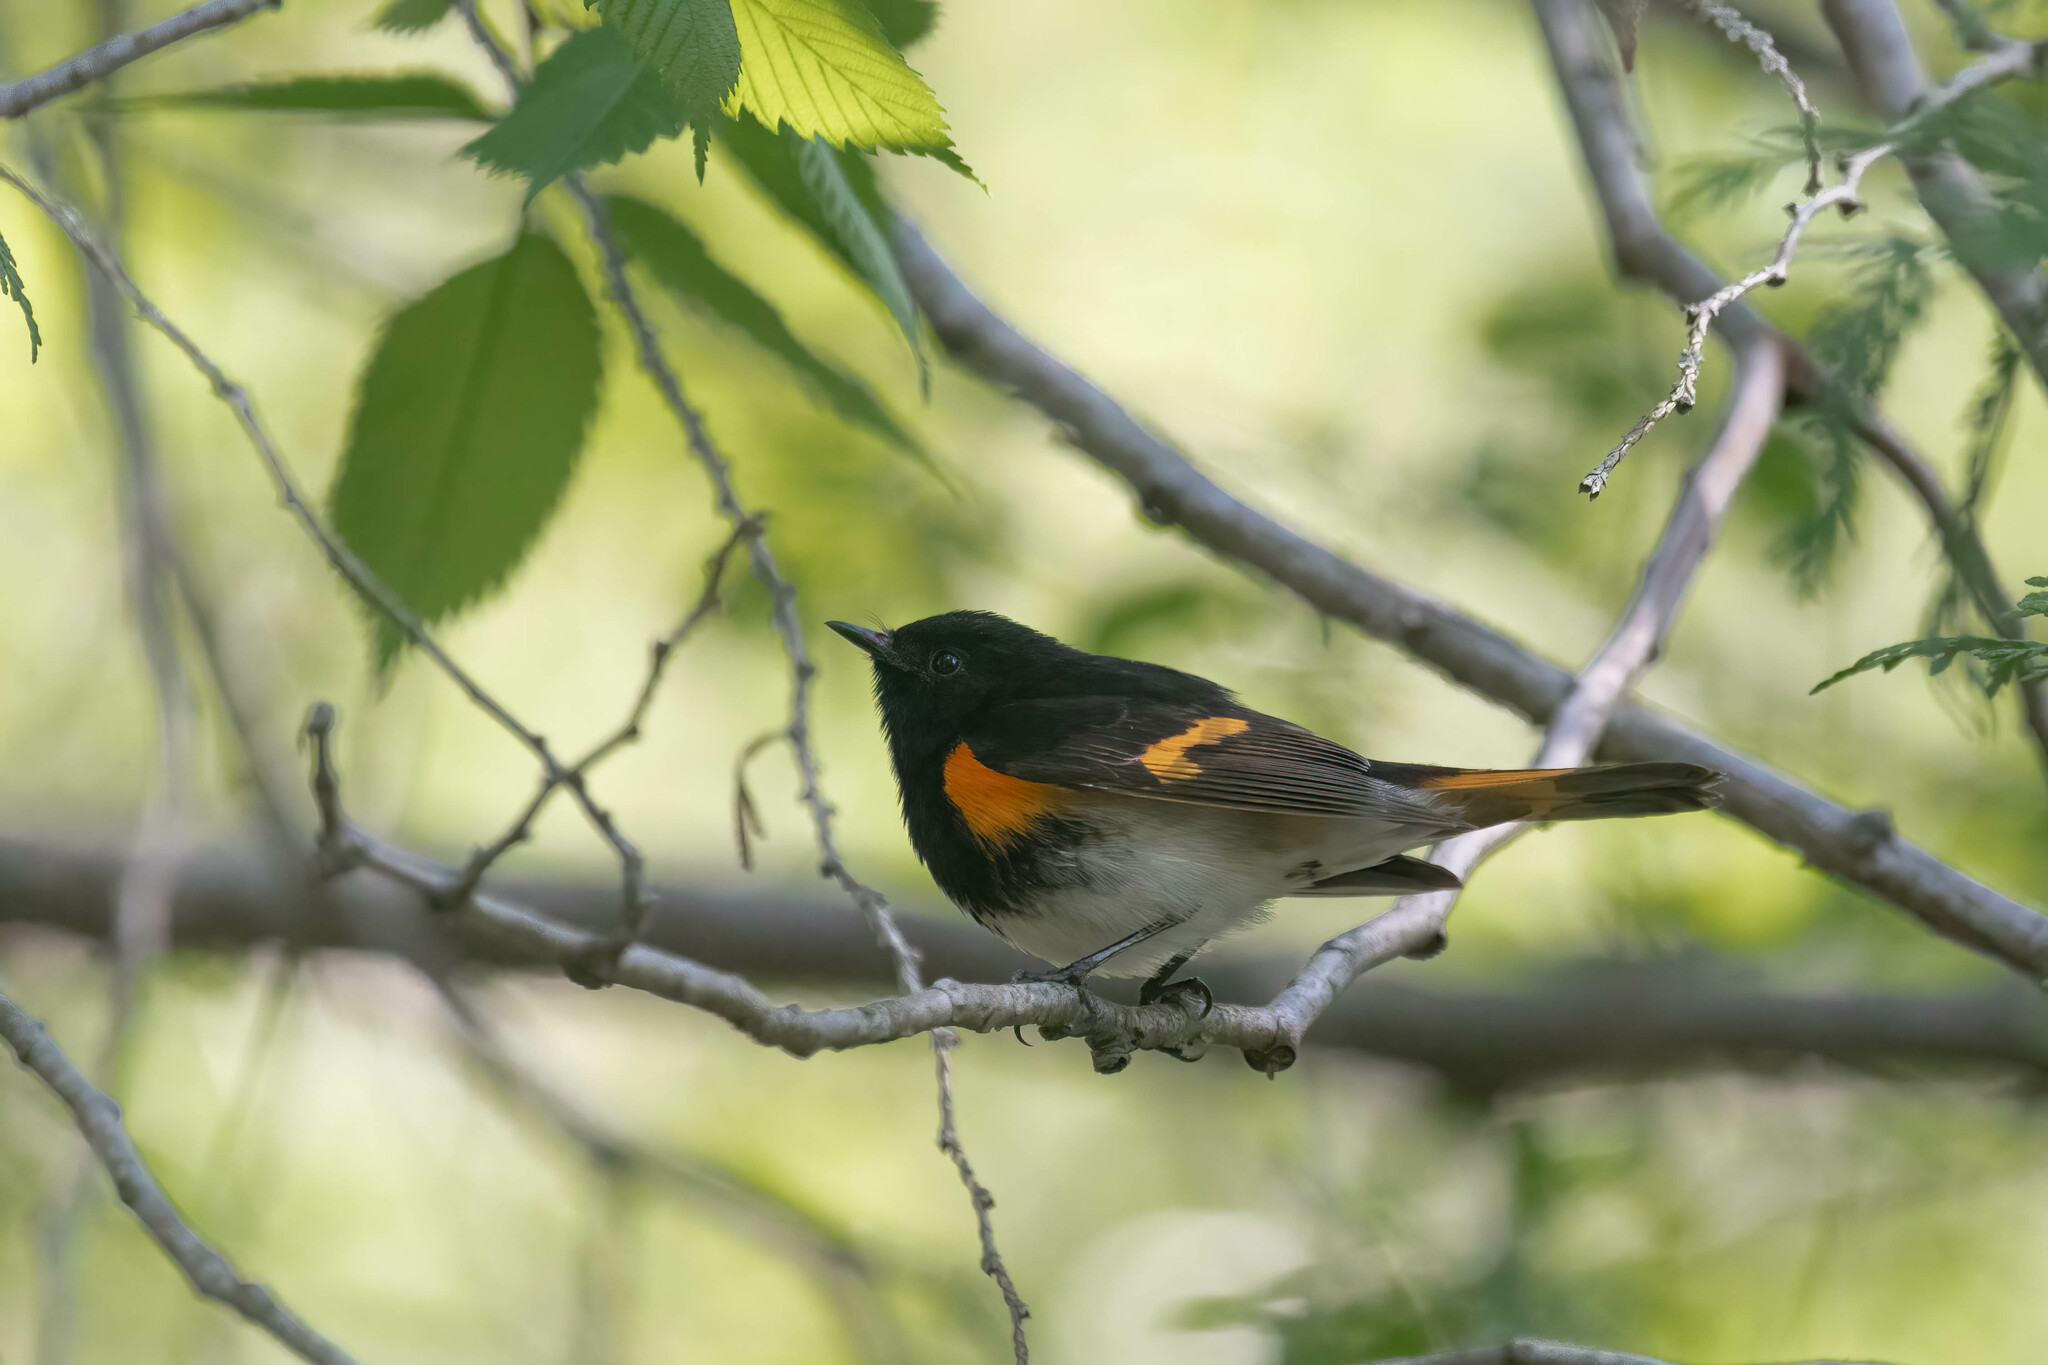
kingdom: Animalia
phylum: Chordata
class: Aves
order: Passeriformes
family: Parulidae
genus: Setophaga
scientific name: Setophaga ruticilla
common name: American redstart
